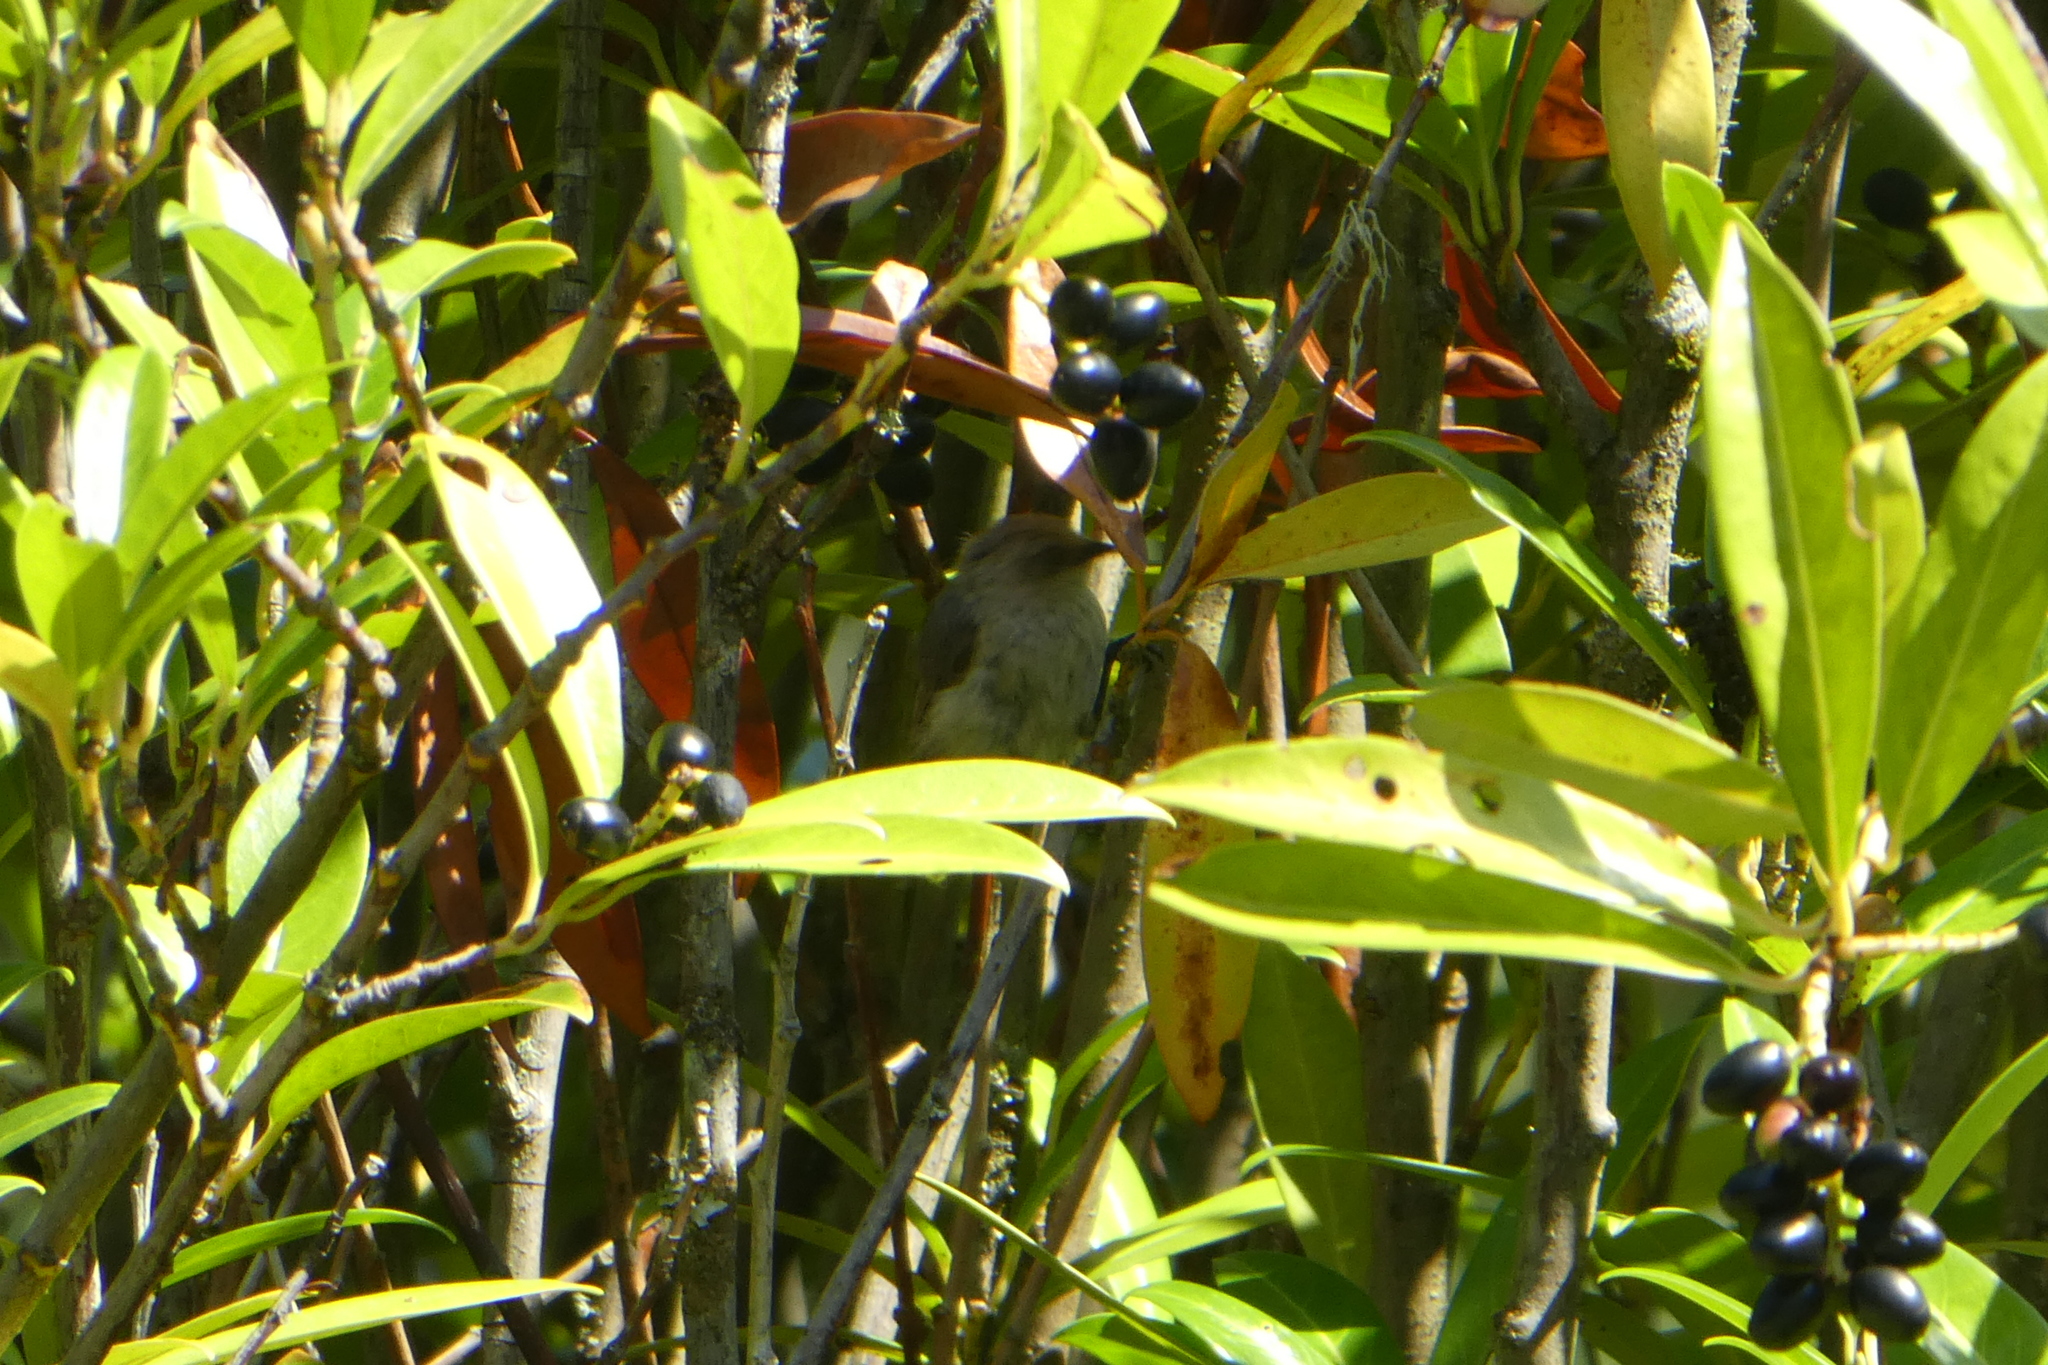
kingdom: Animalia
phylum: Chordata
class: Aves
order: Passeriformes
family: Aegithalidae
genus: Psaltriparus
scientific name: Psaltriparus minimus
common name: American bushtit
